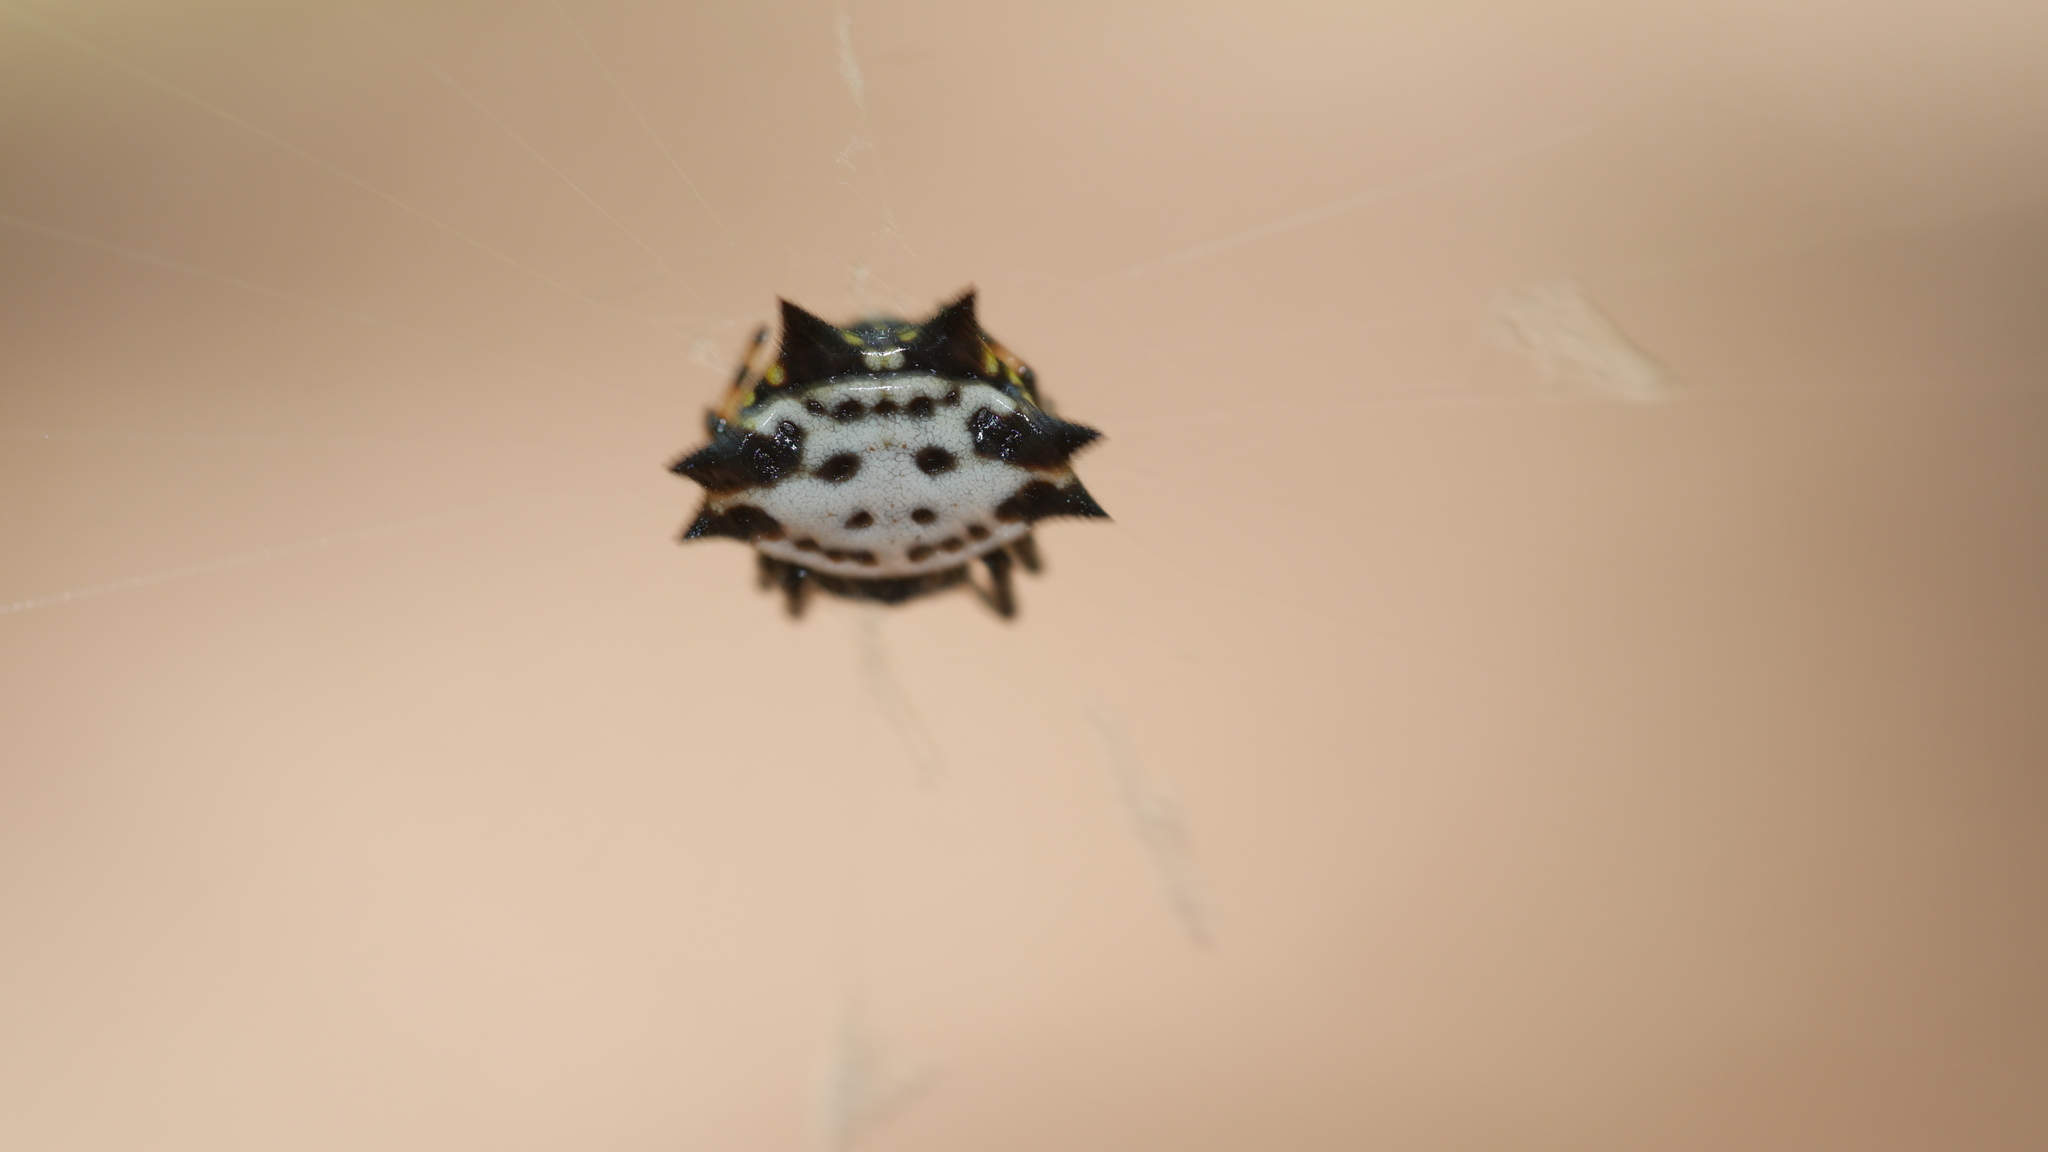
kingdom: Animalia
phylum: Arthropoda
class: Arachnida
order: Araneae
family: Araneidae
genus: Gasteracantha
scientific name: Gasteracantha cancriformis
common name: Orb weavers
